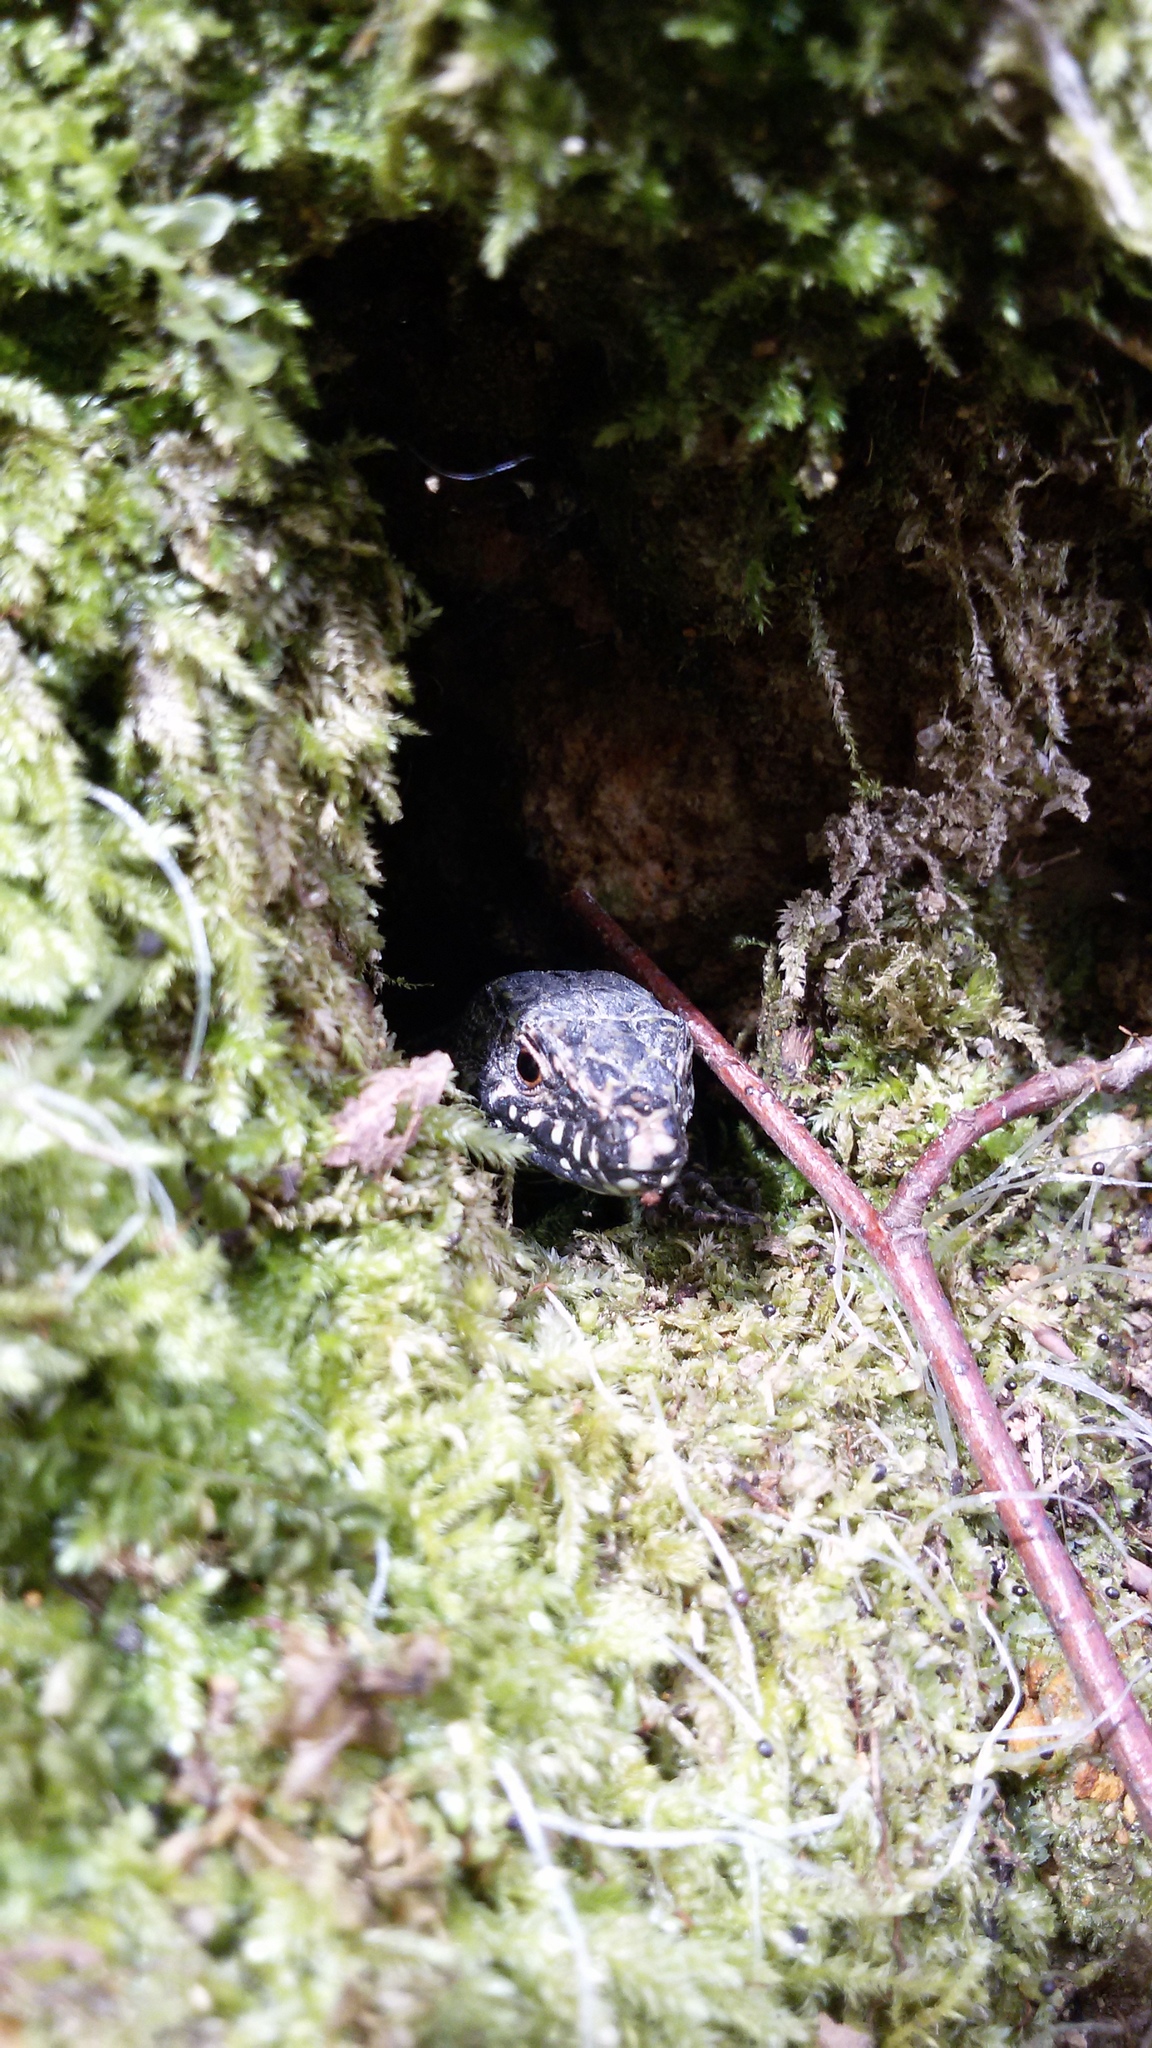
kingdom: Animalia
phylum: Chordata
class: Squamata
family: Lacertidae
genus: Podarcis
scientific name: Podarcis muralis
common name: Common wall lizard
